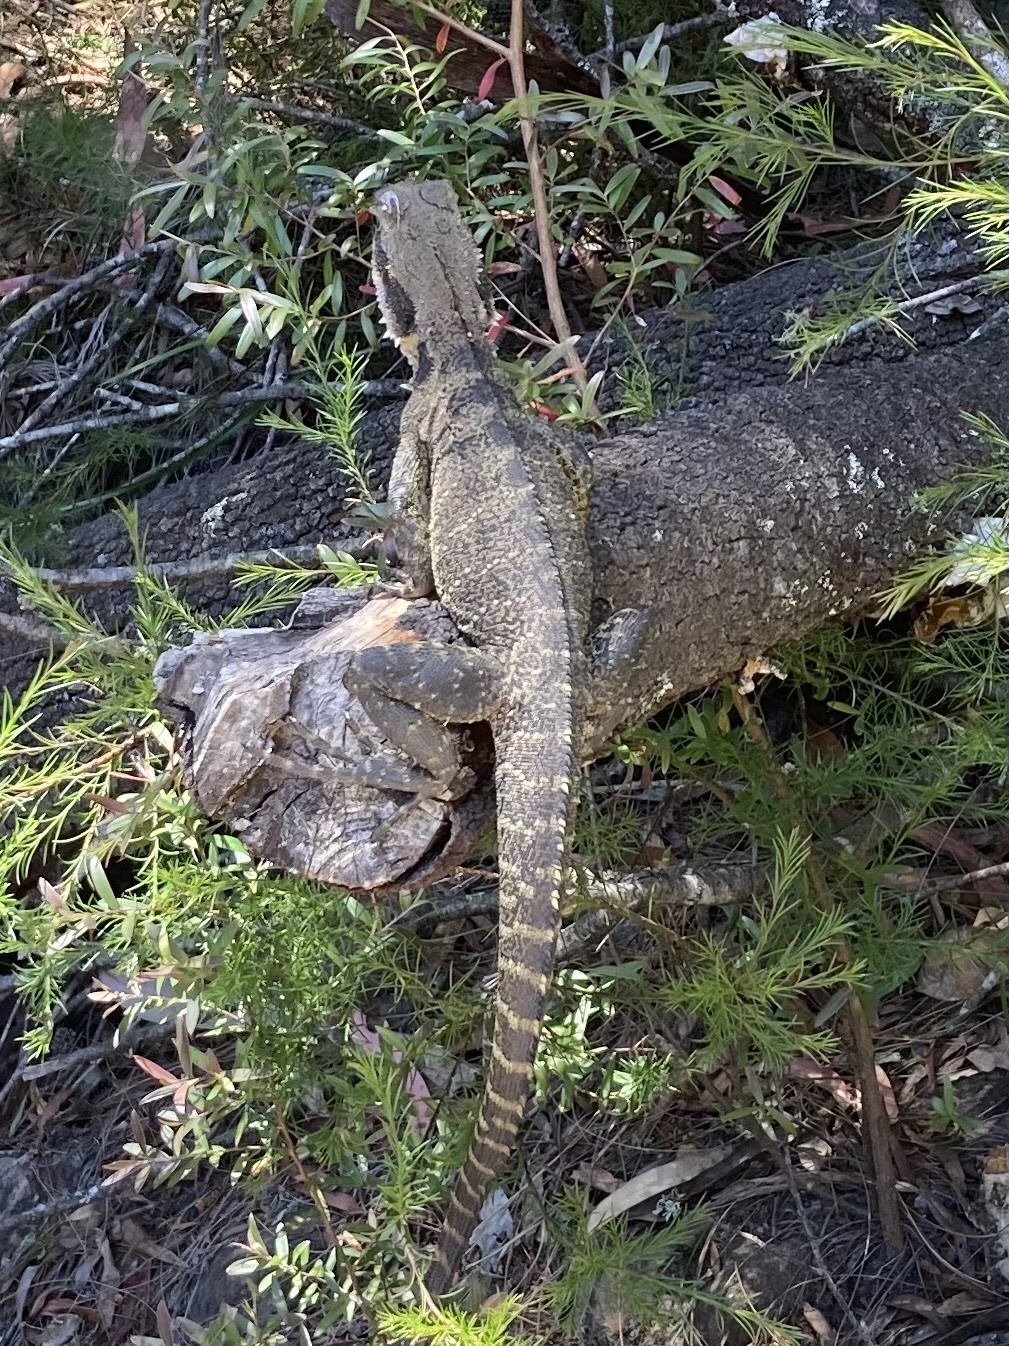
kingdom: Animalia
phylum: Chordata
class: Squamata
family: Agamidae
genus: Intellagama
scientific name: Intellagama lesueurii
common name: Eastern water dragon
